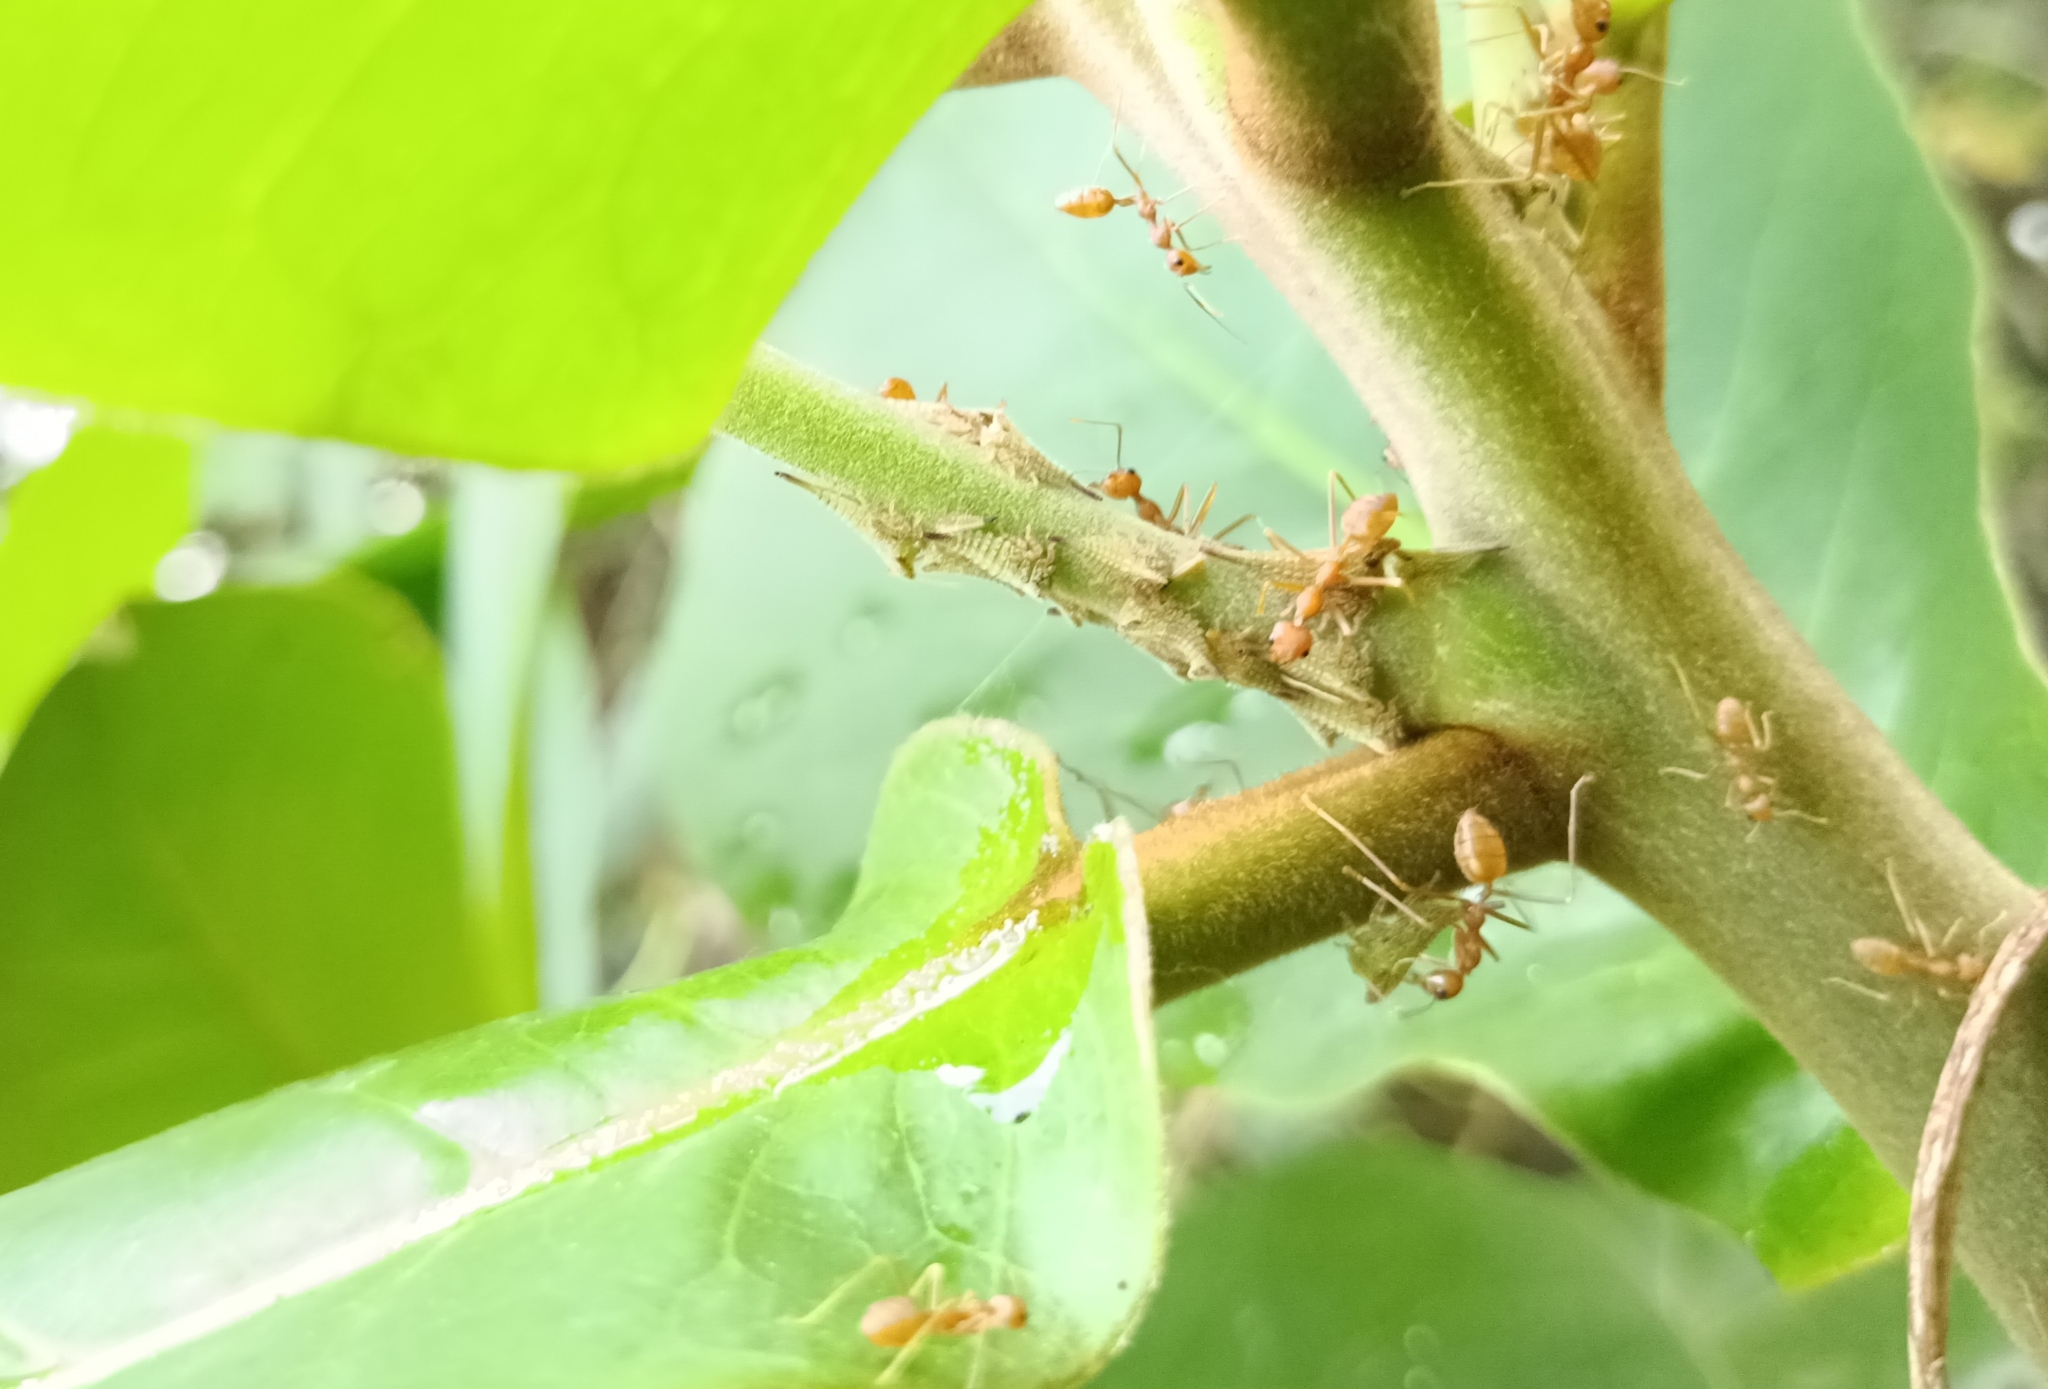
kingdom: Animalia
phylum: Arthropoda
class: Insecta
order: Hymenoptera
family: Formicidae
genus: Oecophylla
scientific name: Oecophylla smaragdina
